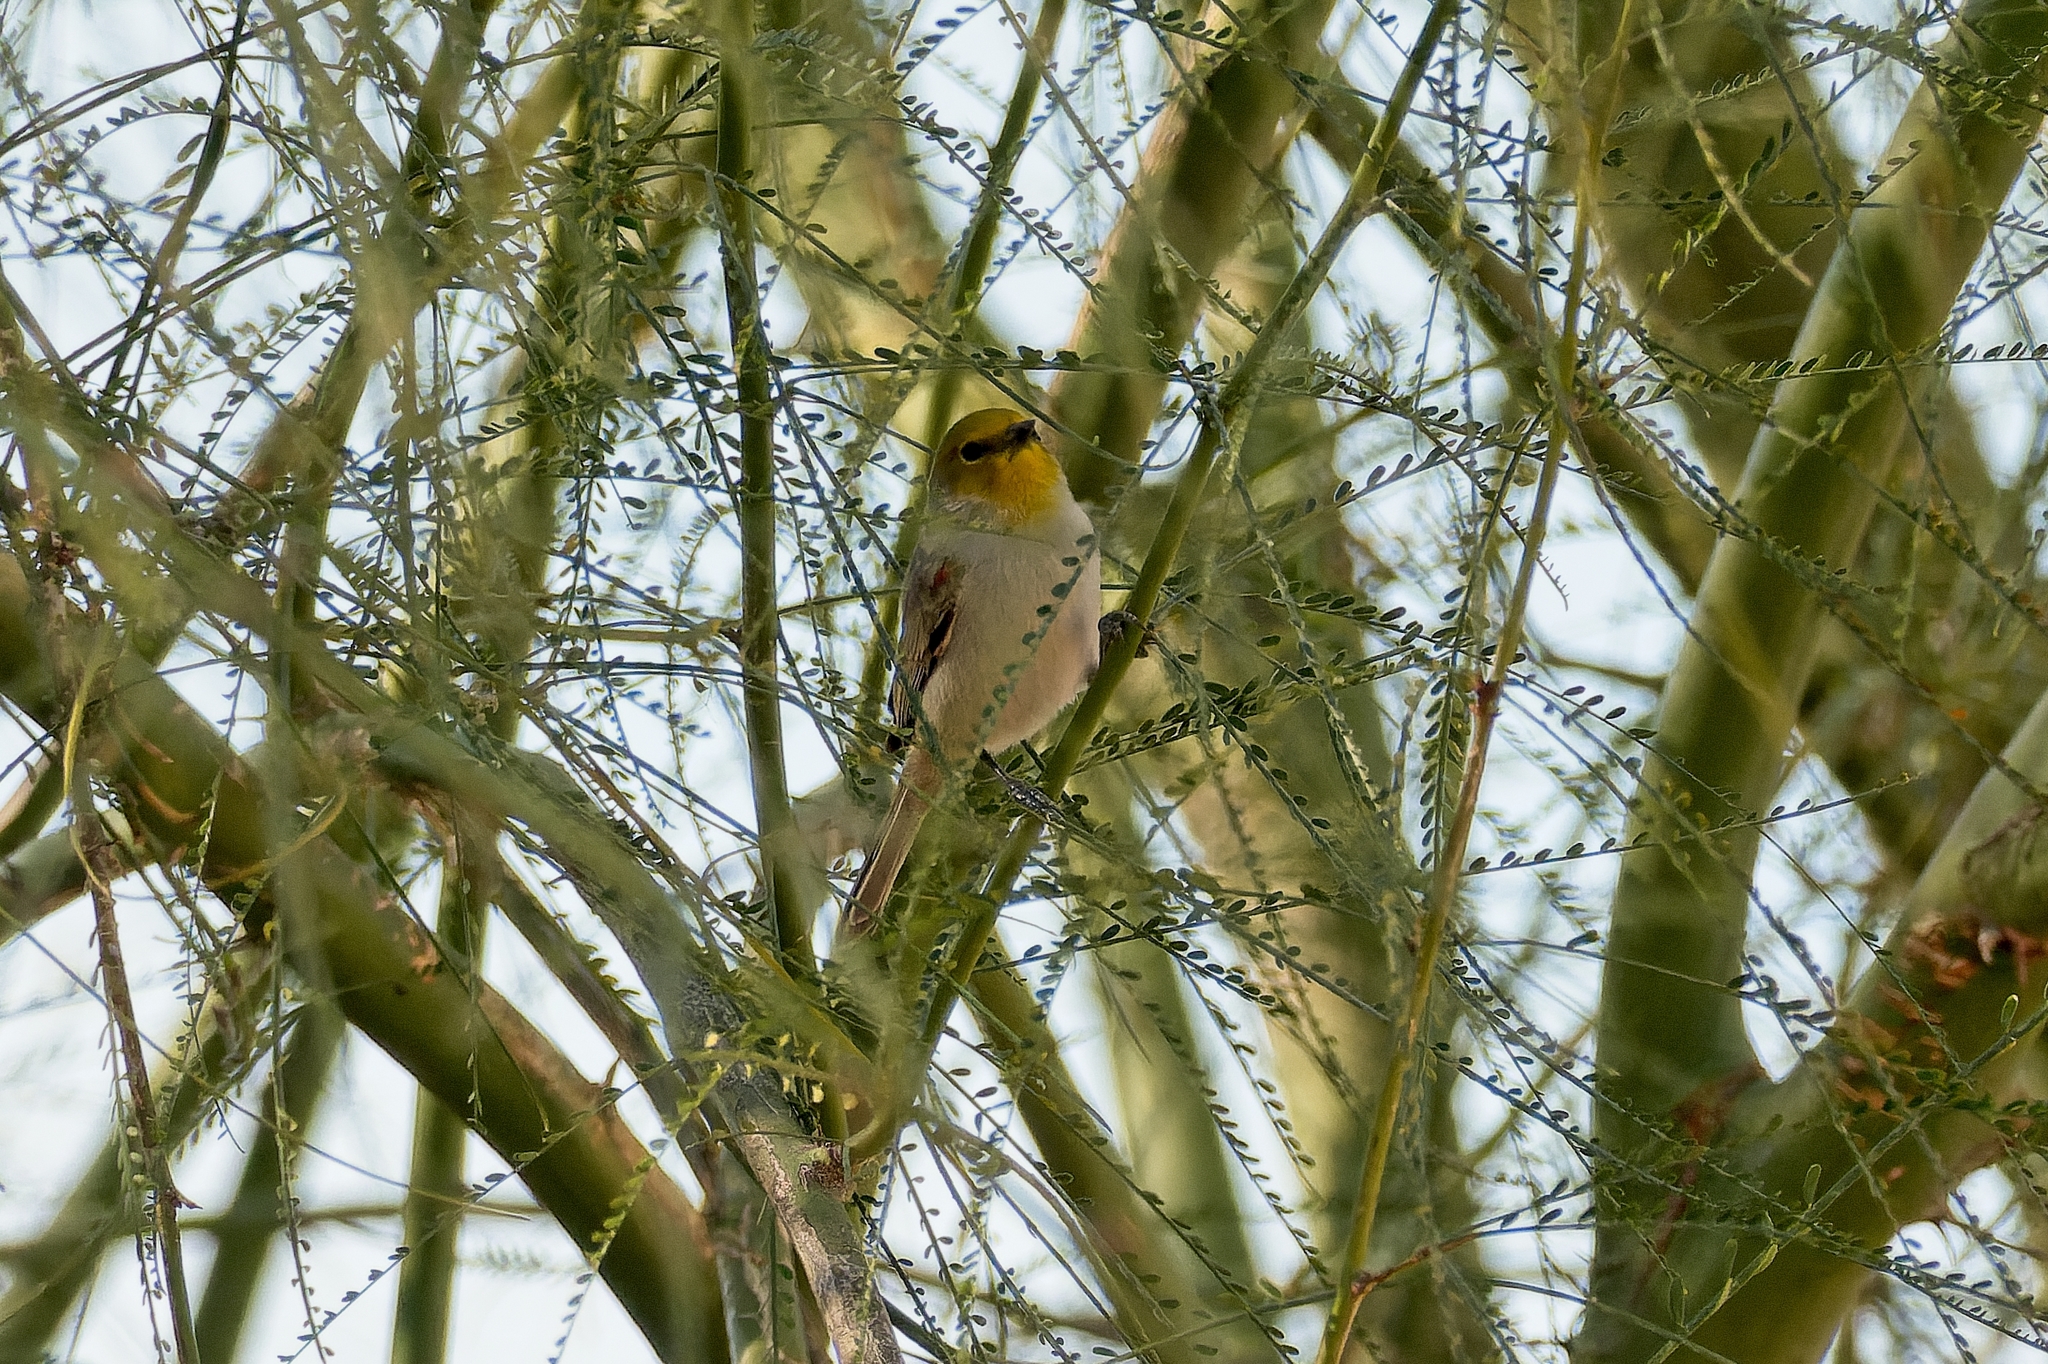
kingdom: Animalia
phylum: Chordata
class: Aves
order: Passeriformes
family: Remizidae
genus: Auriparus
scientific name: Auriparus flaviceps
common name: Verdin
